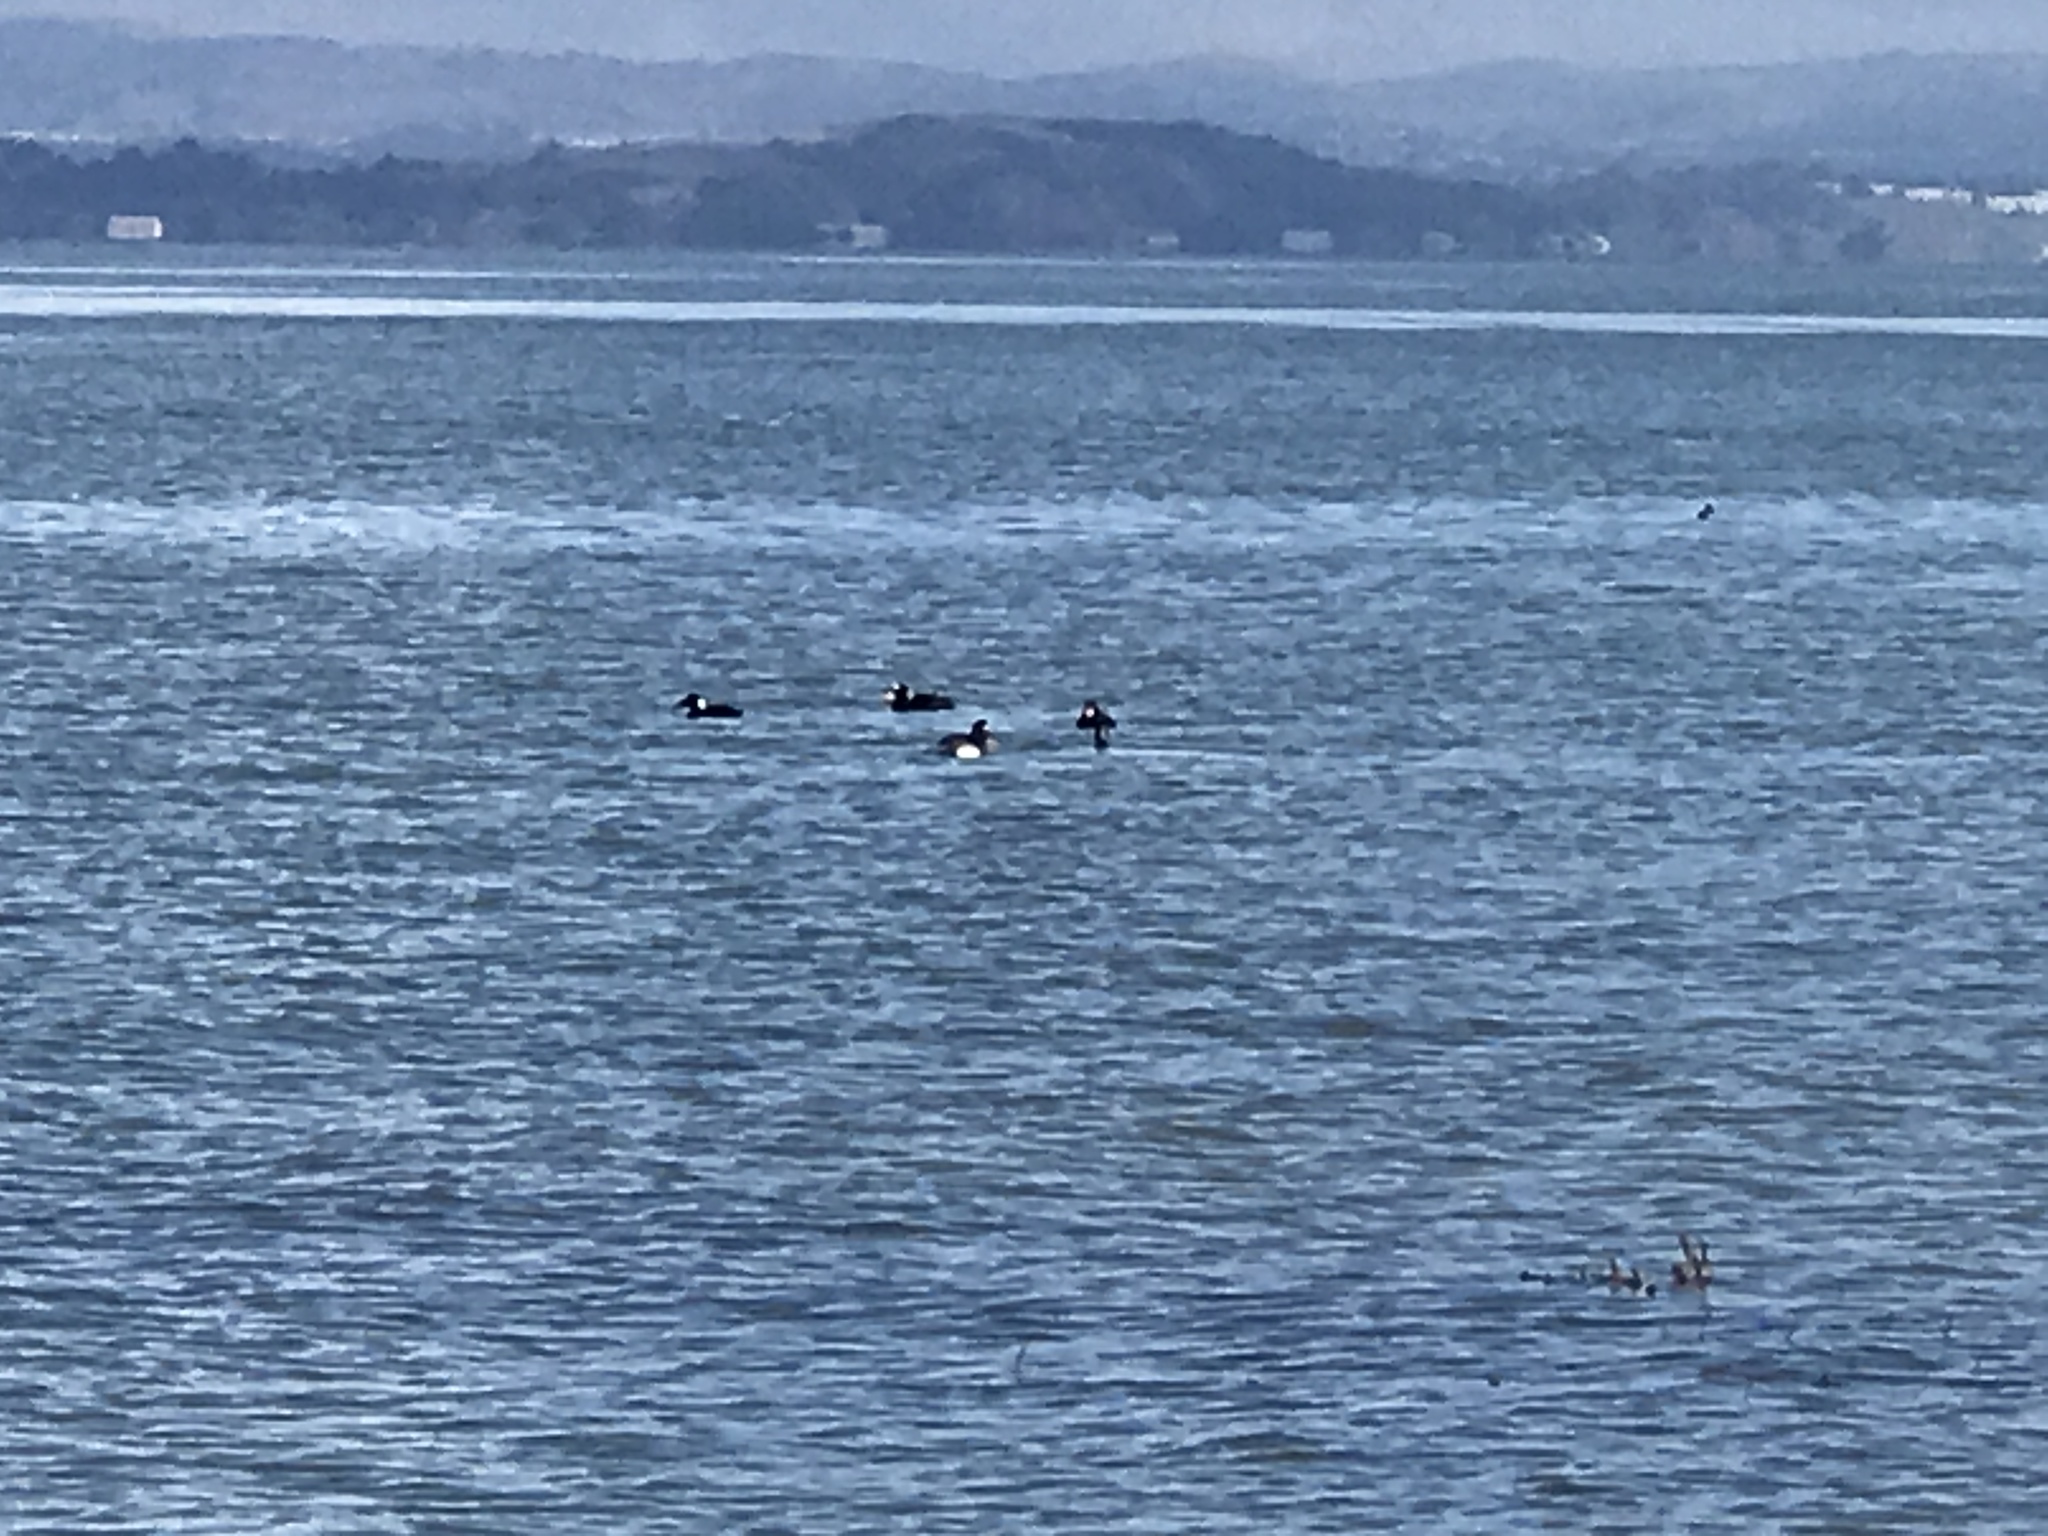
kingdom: Animalia
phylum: Chordata
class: Aves
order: Anseriformes
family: Anatidae
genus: Melanitta
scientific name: Melanitta perspicillata
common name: Surf scoter
